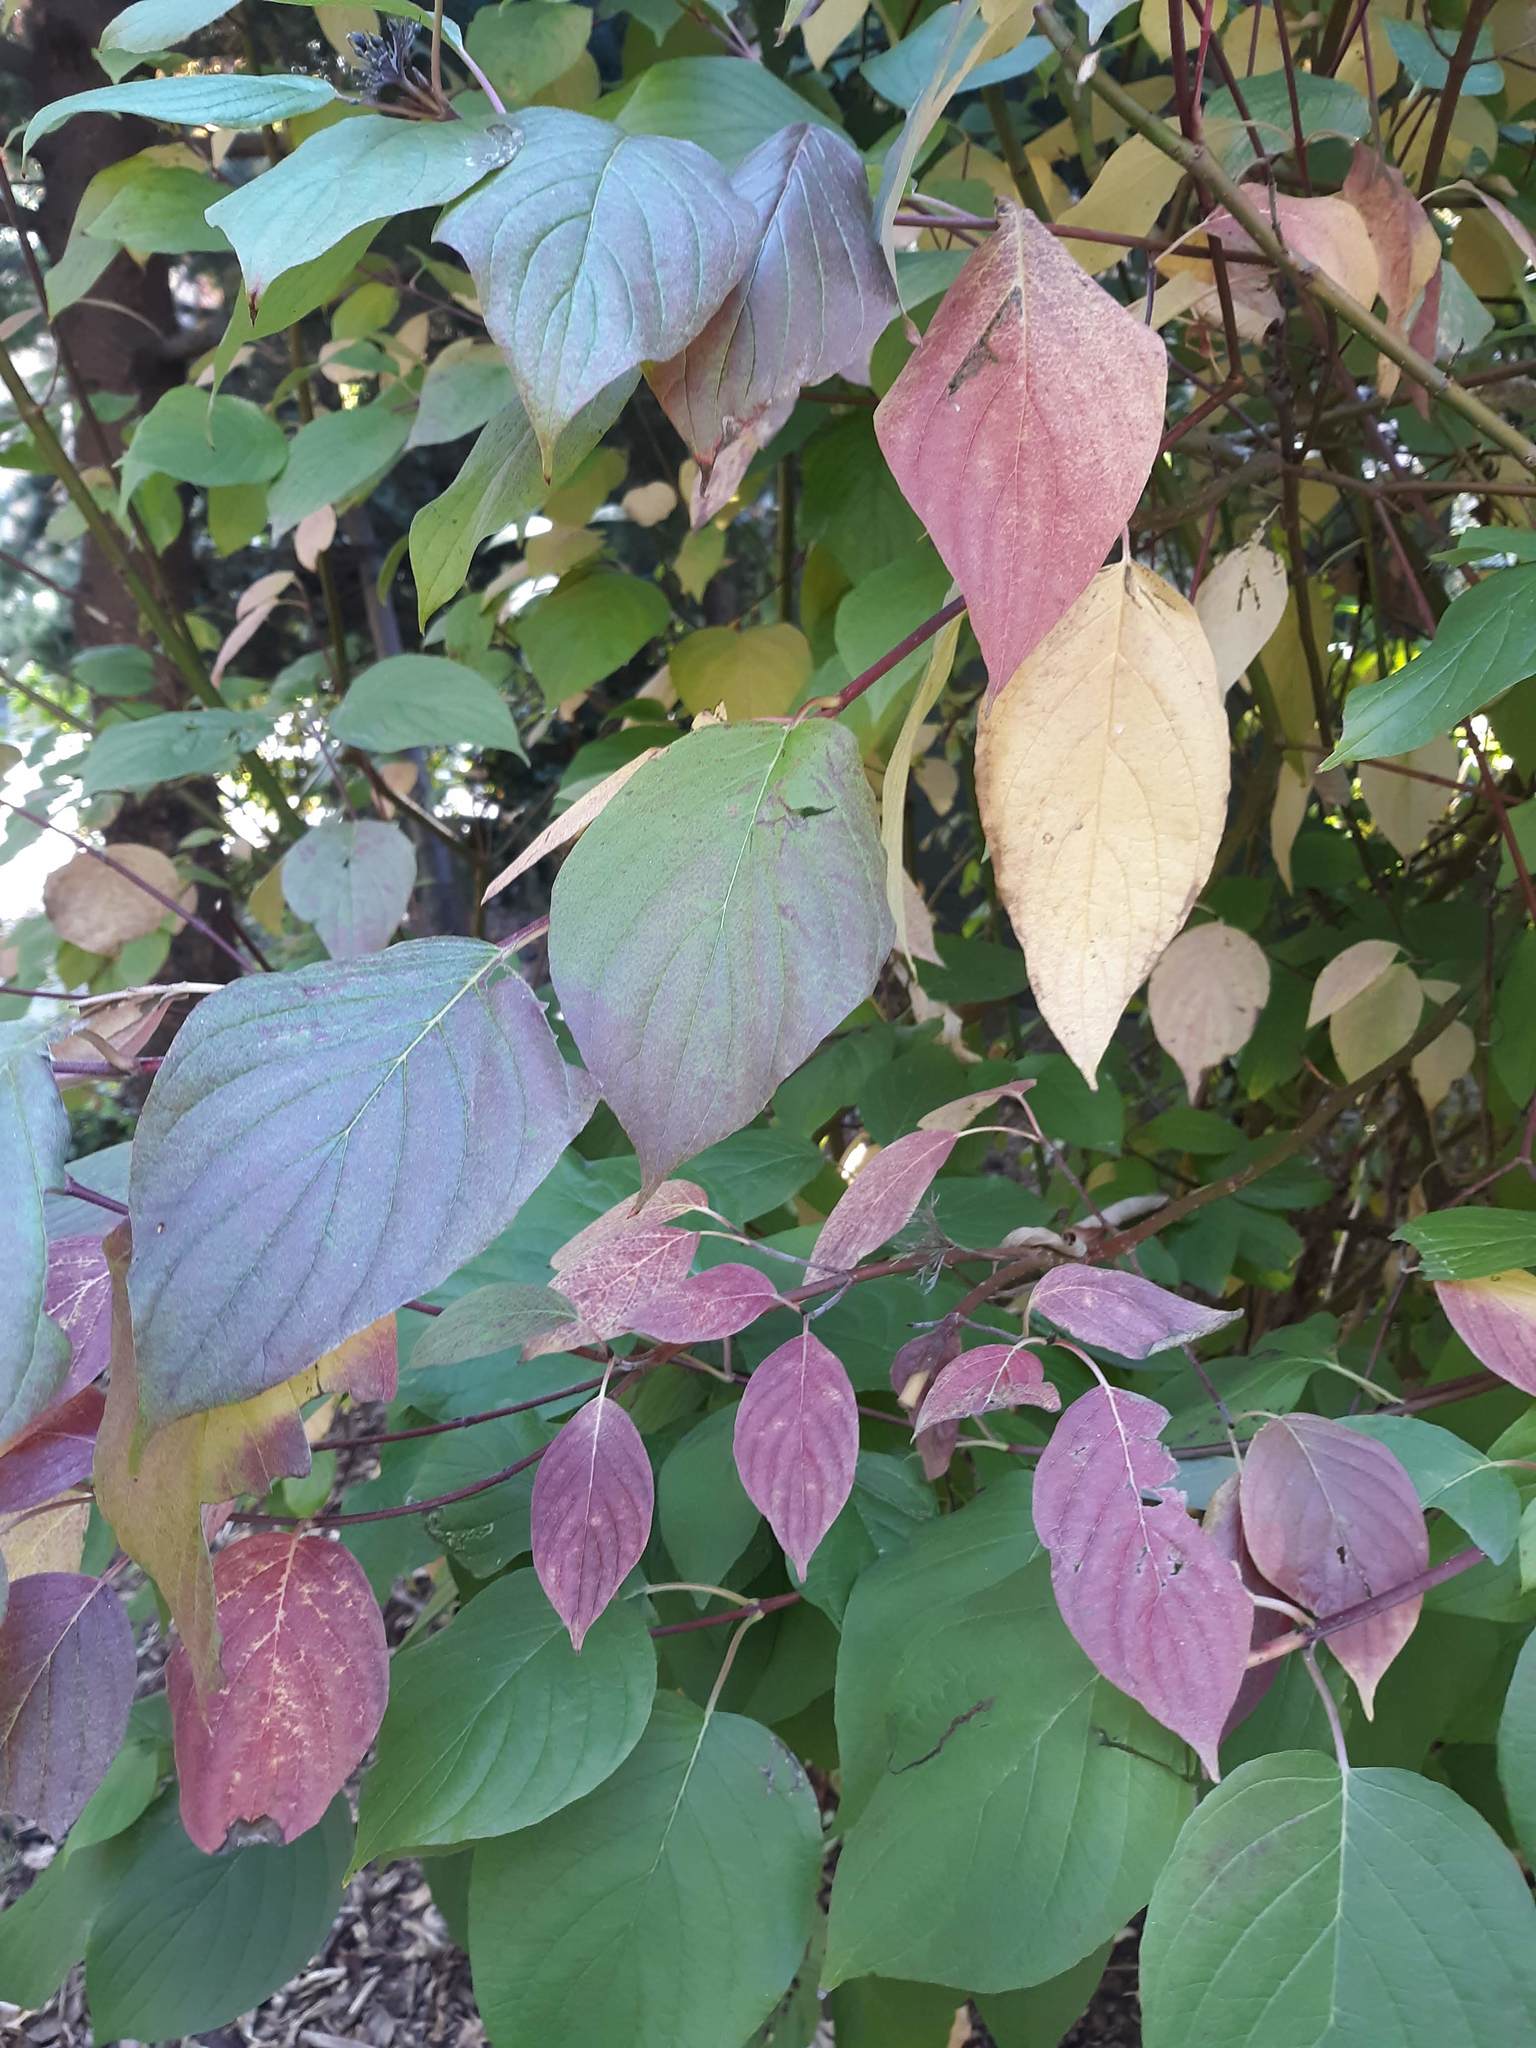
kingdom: Plantae
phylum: Tracheophyta
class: Magnoliopsida
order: Cornales
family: Cornaceae
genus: Cornus
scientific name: Cornus sericea
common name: Red-osier dogwood
